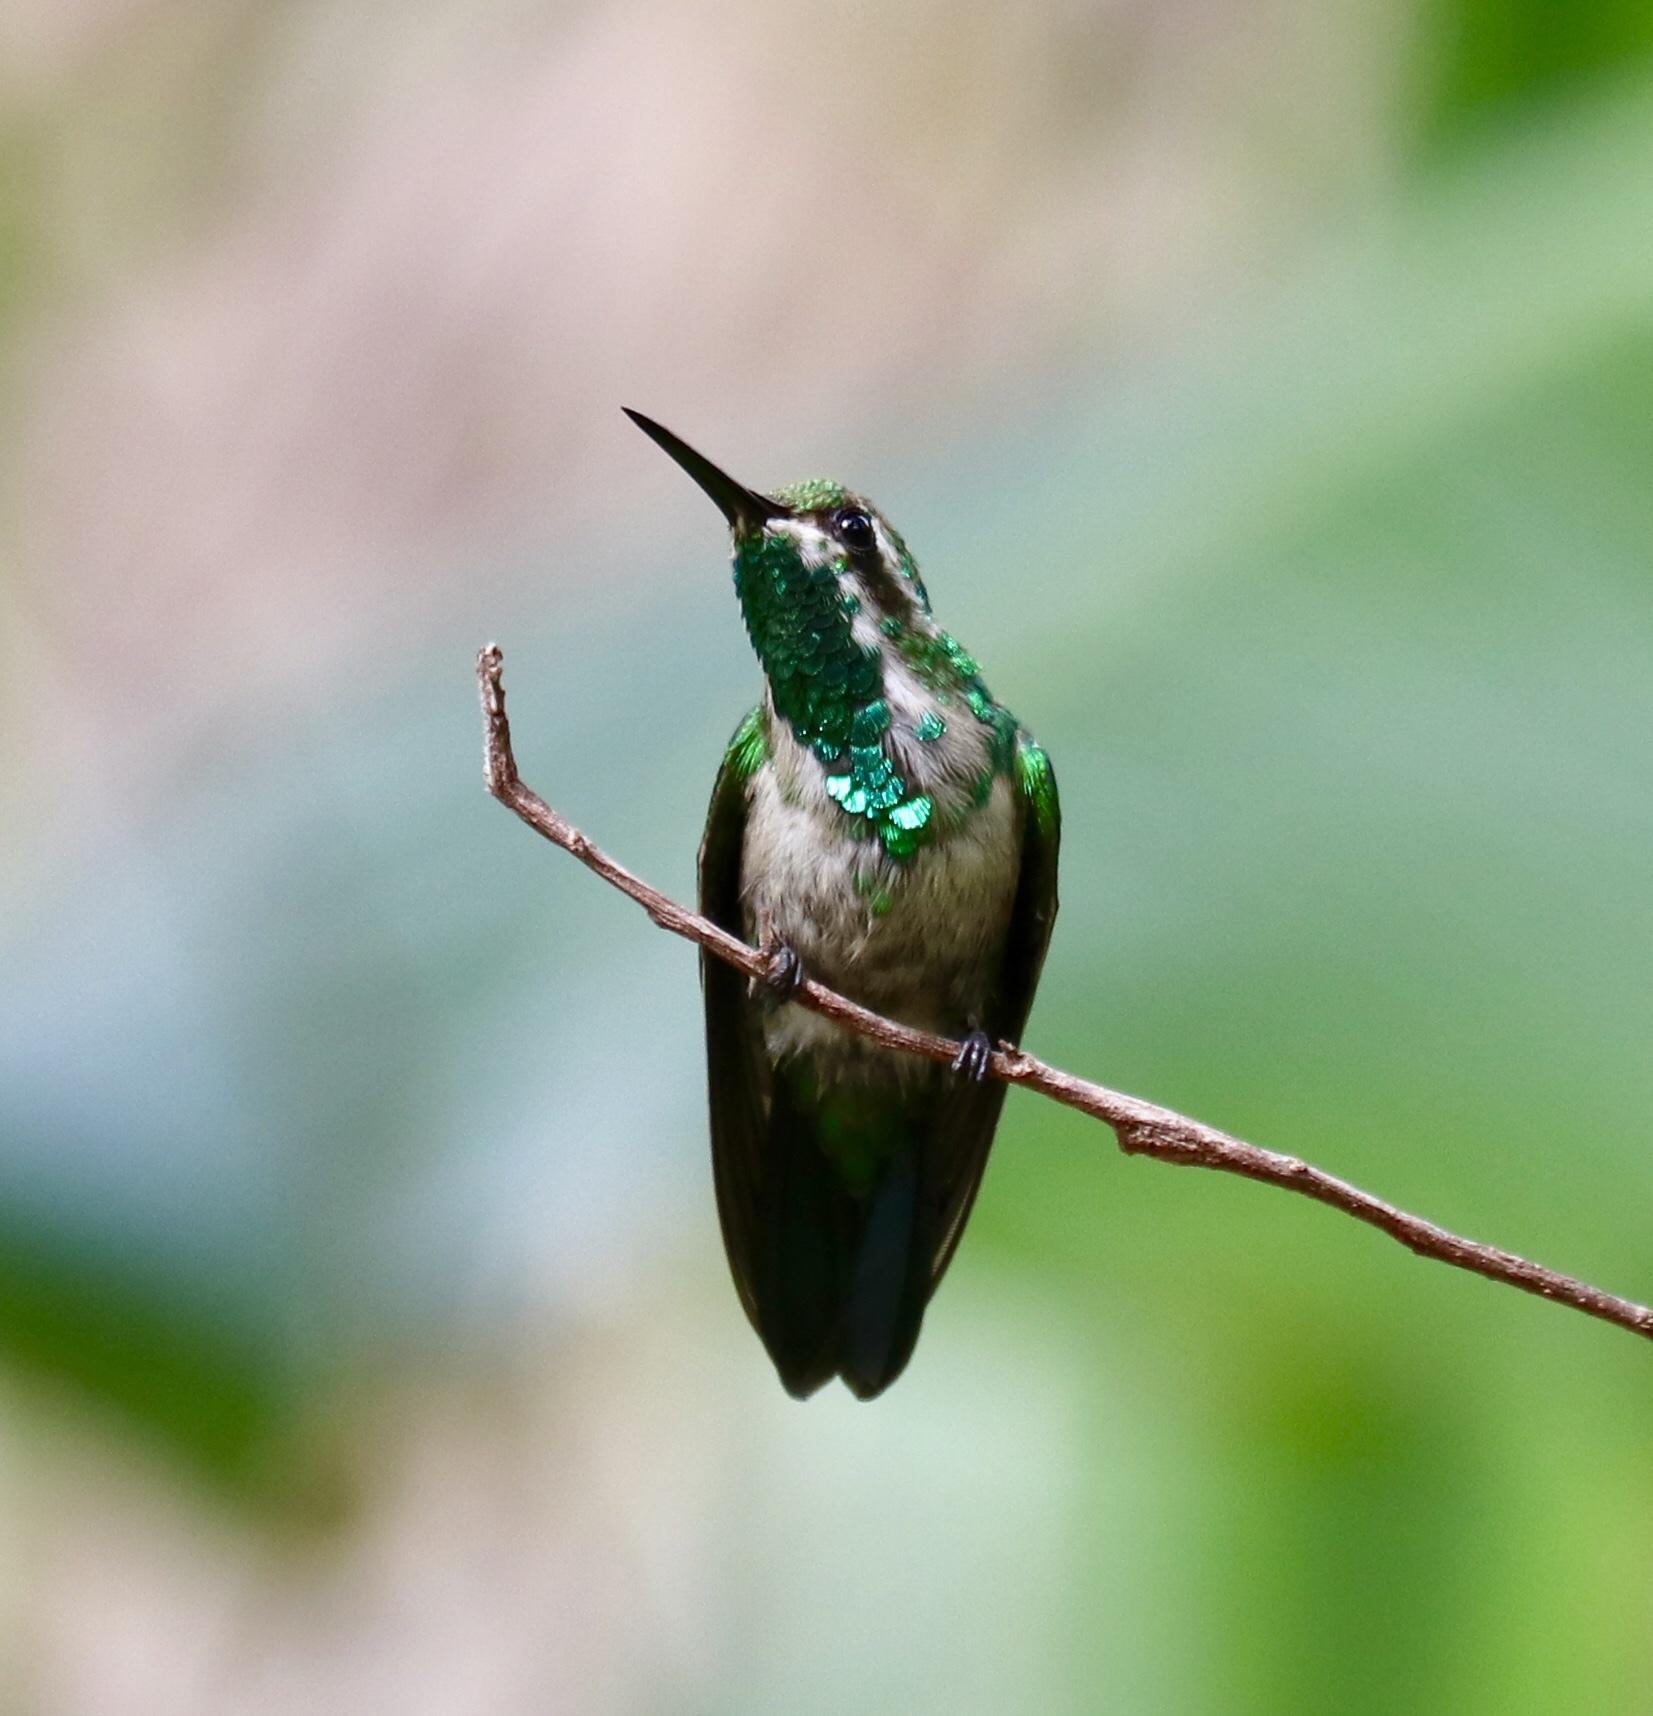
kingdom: Animalia
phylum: Chordata
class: Aves
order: Apodiformes
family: Trochilidae
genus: Chlorostilbon
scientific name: Chlorostilbon assimilis
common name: Garden emerald
